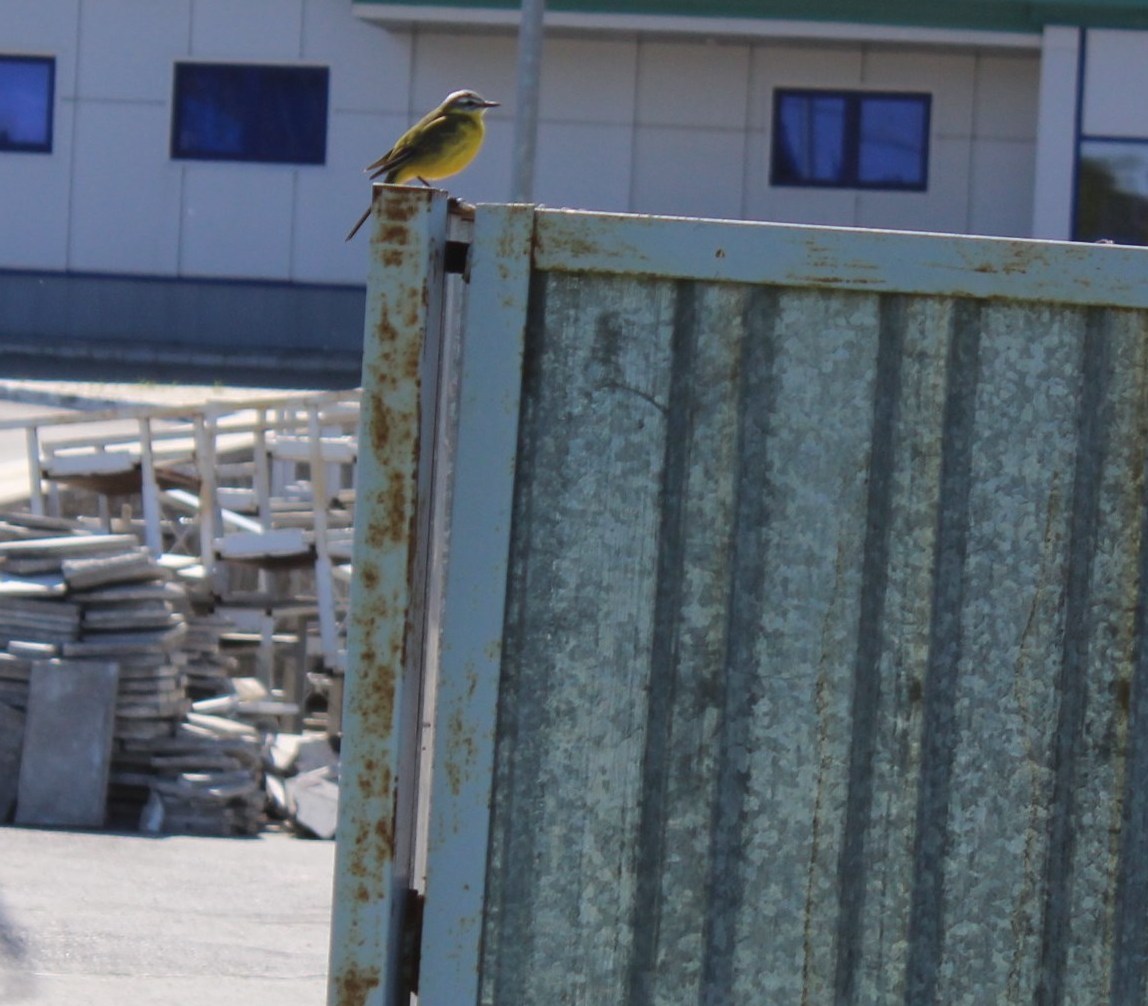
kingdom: Animalia
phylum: Chordata
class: Aves
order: Passeriformes
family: Motacillidae
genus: Motacilla
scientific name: Motacilla flava
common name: Western yellow wagtail
